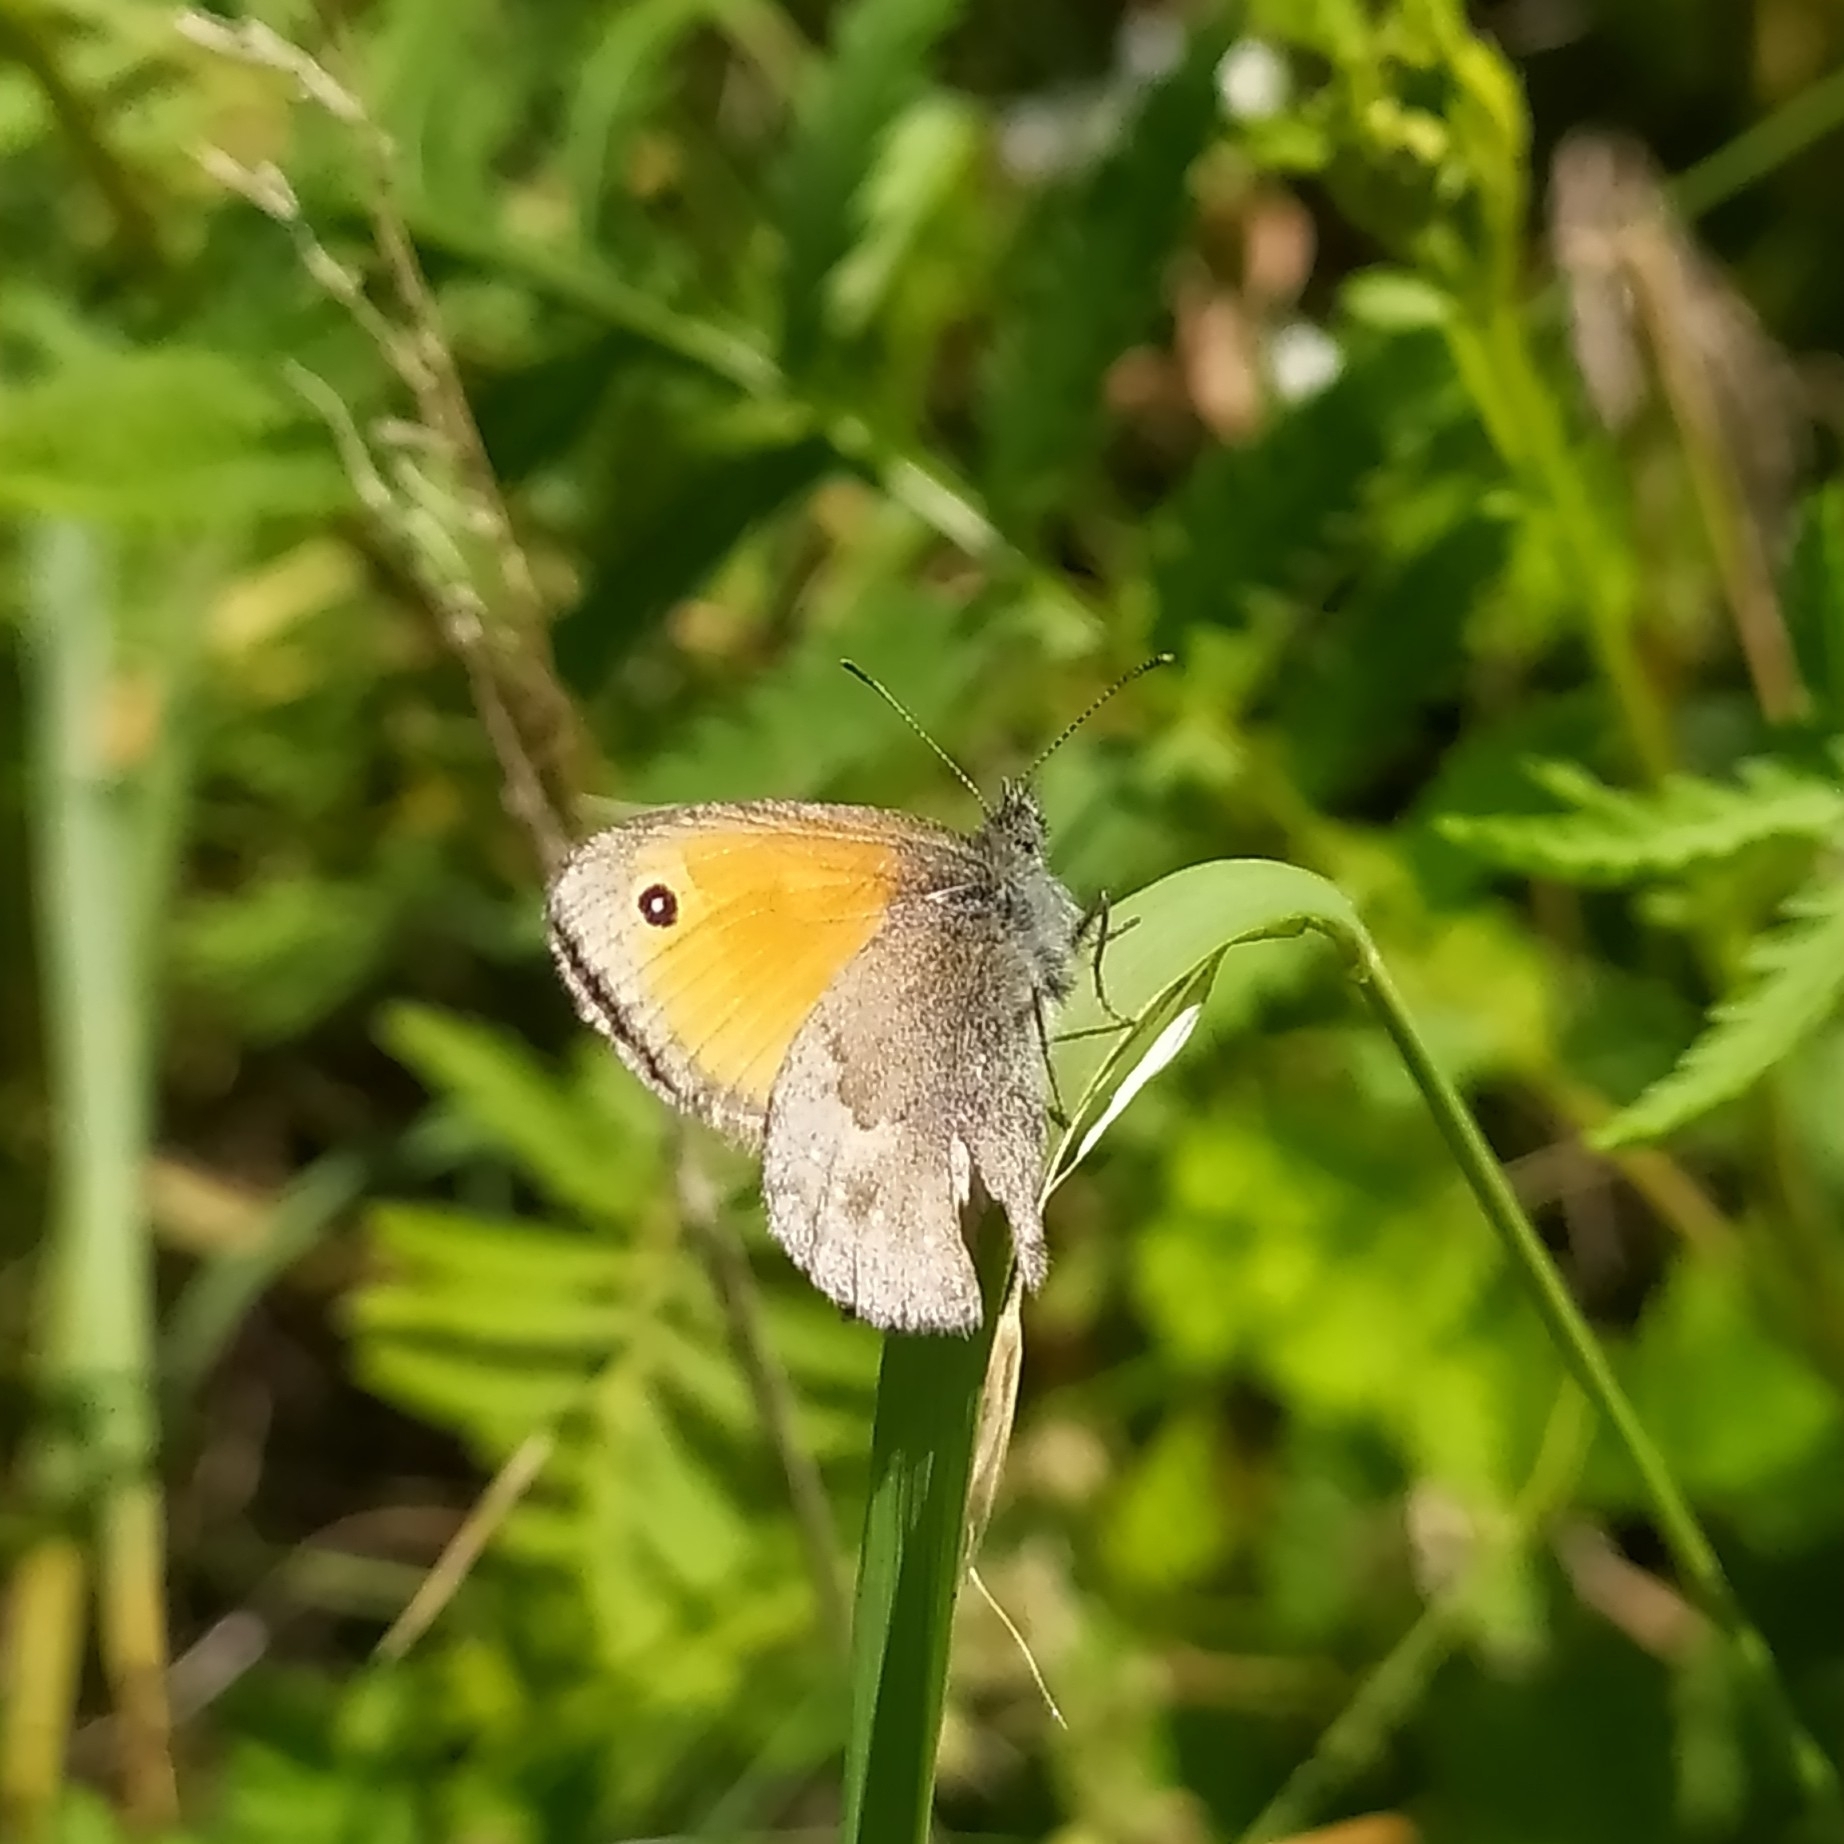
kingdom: Animalia
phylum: Arthropoda
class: Insecta
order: Lepidoptera
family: Nymphalidae
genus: Coenonympha
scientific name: Coenonympha pamphilus
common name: Small heath
